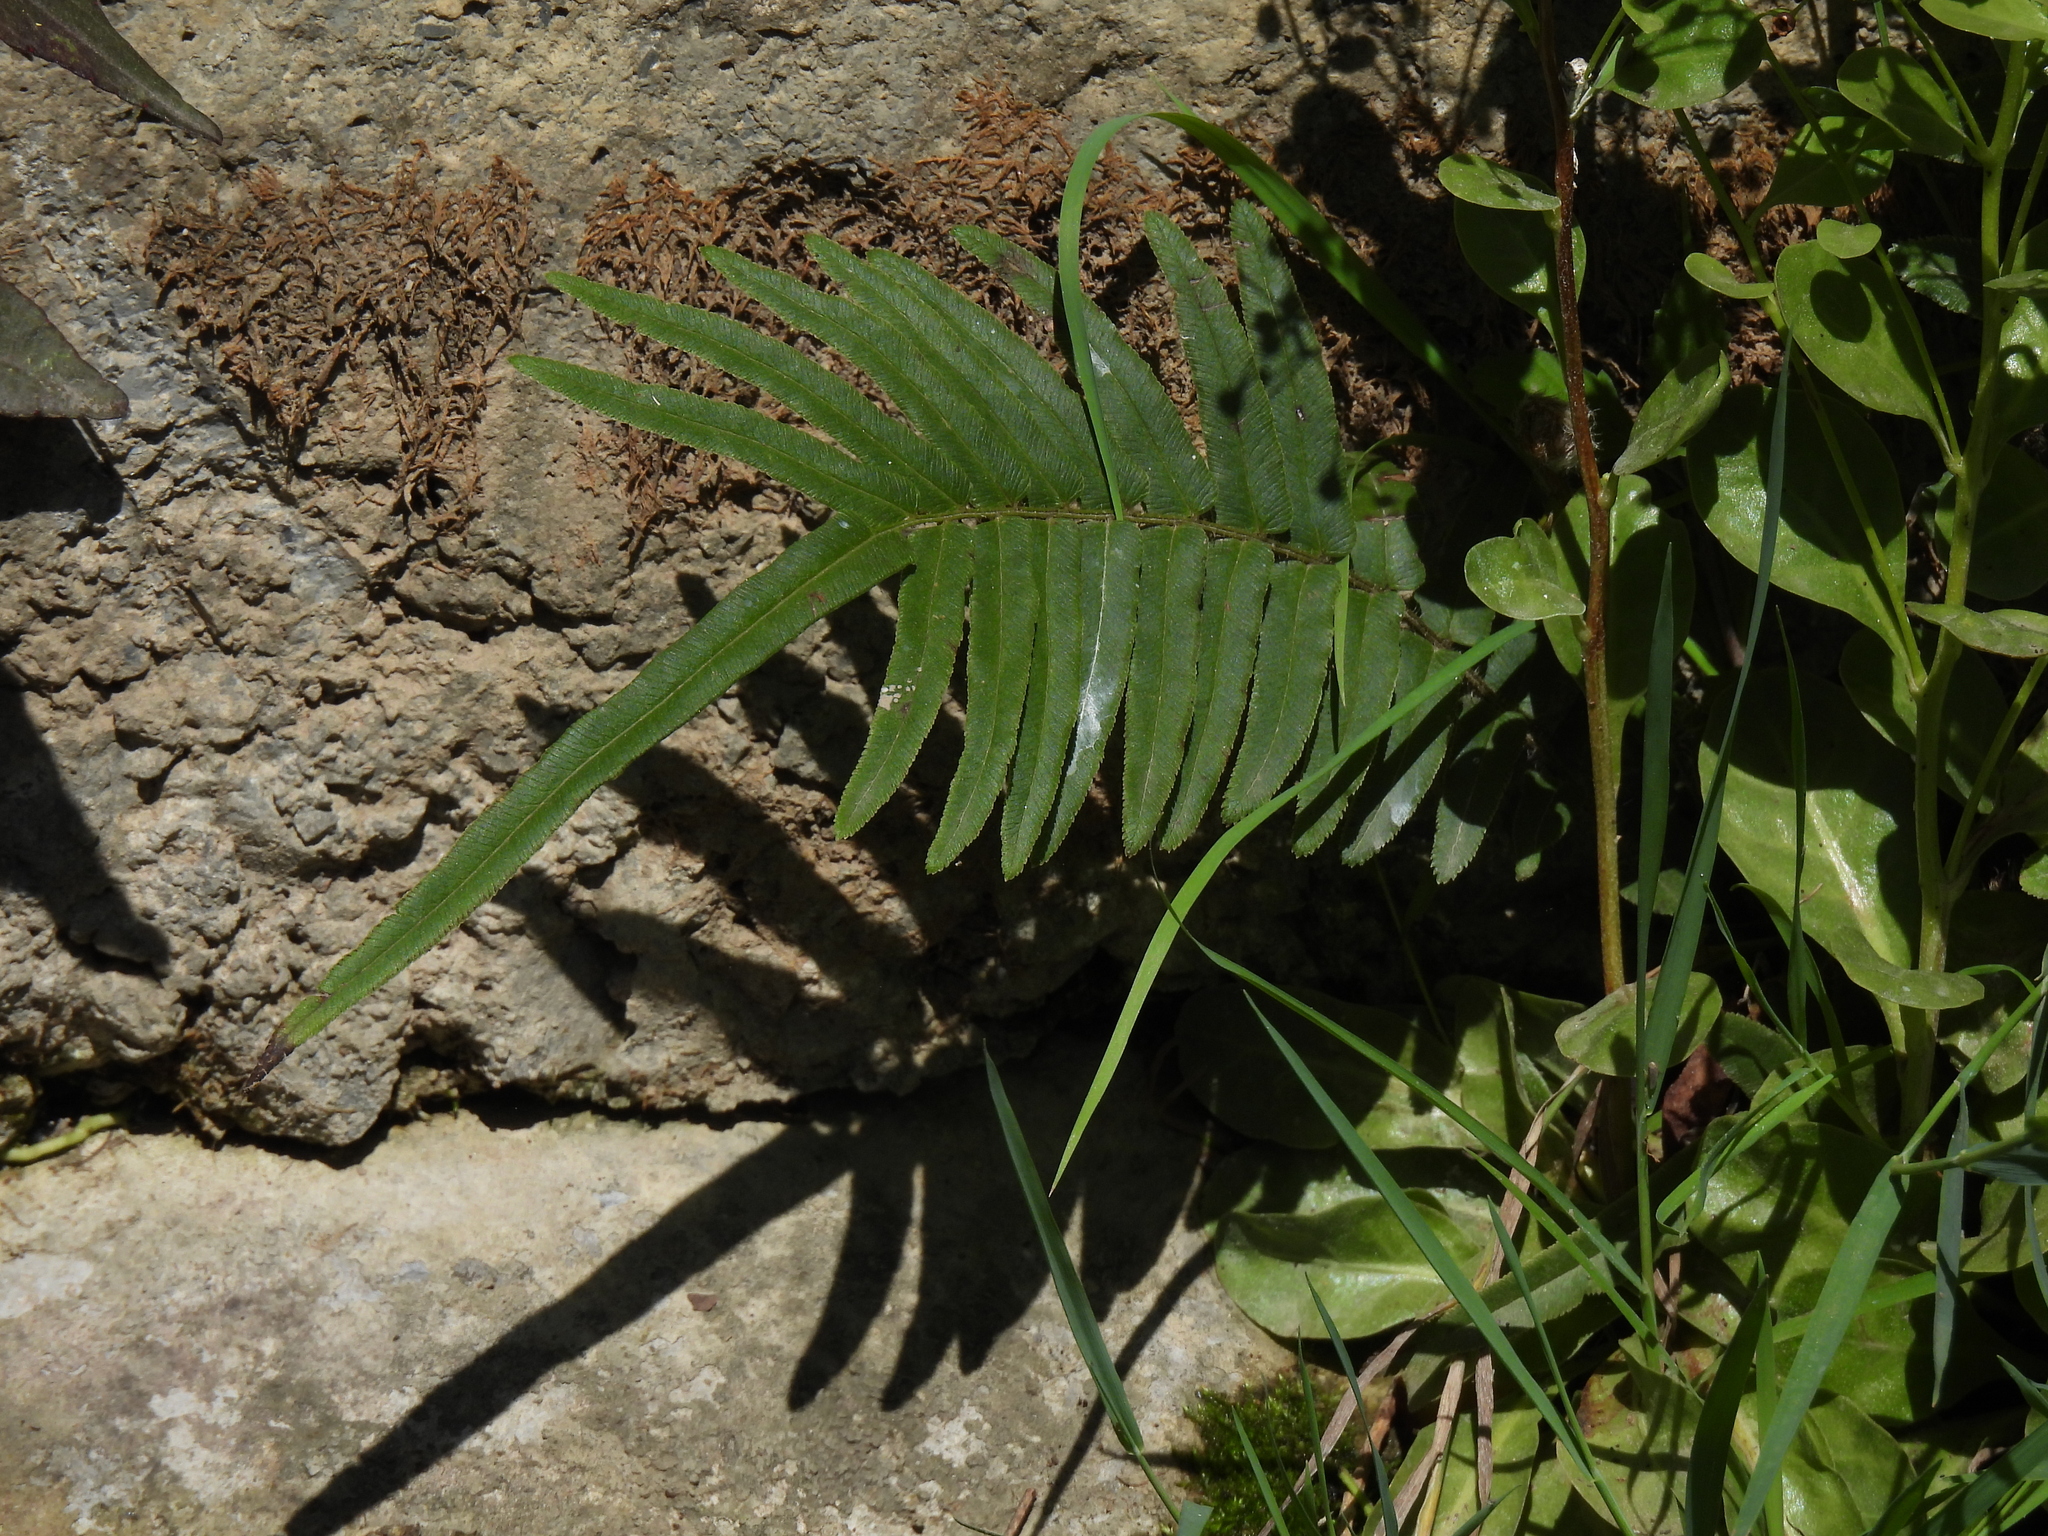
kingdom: Plantae
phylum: Tracheophyta
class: Polypodiopsida
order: Polypodiales
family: Pteridaceae
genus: Pteris
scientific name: Pteris vittata
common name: Ladder brake
